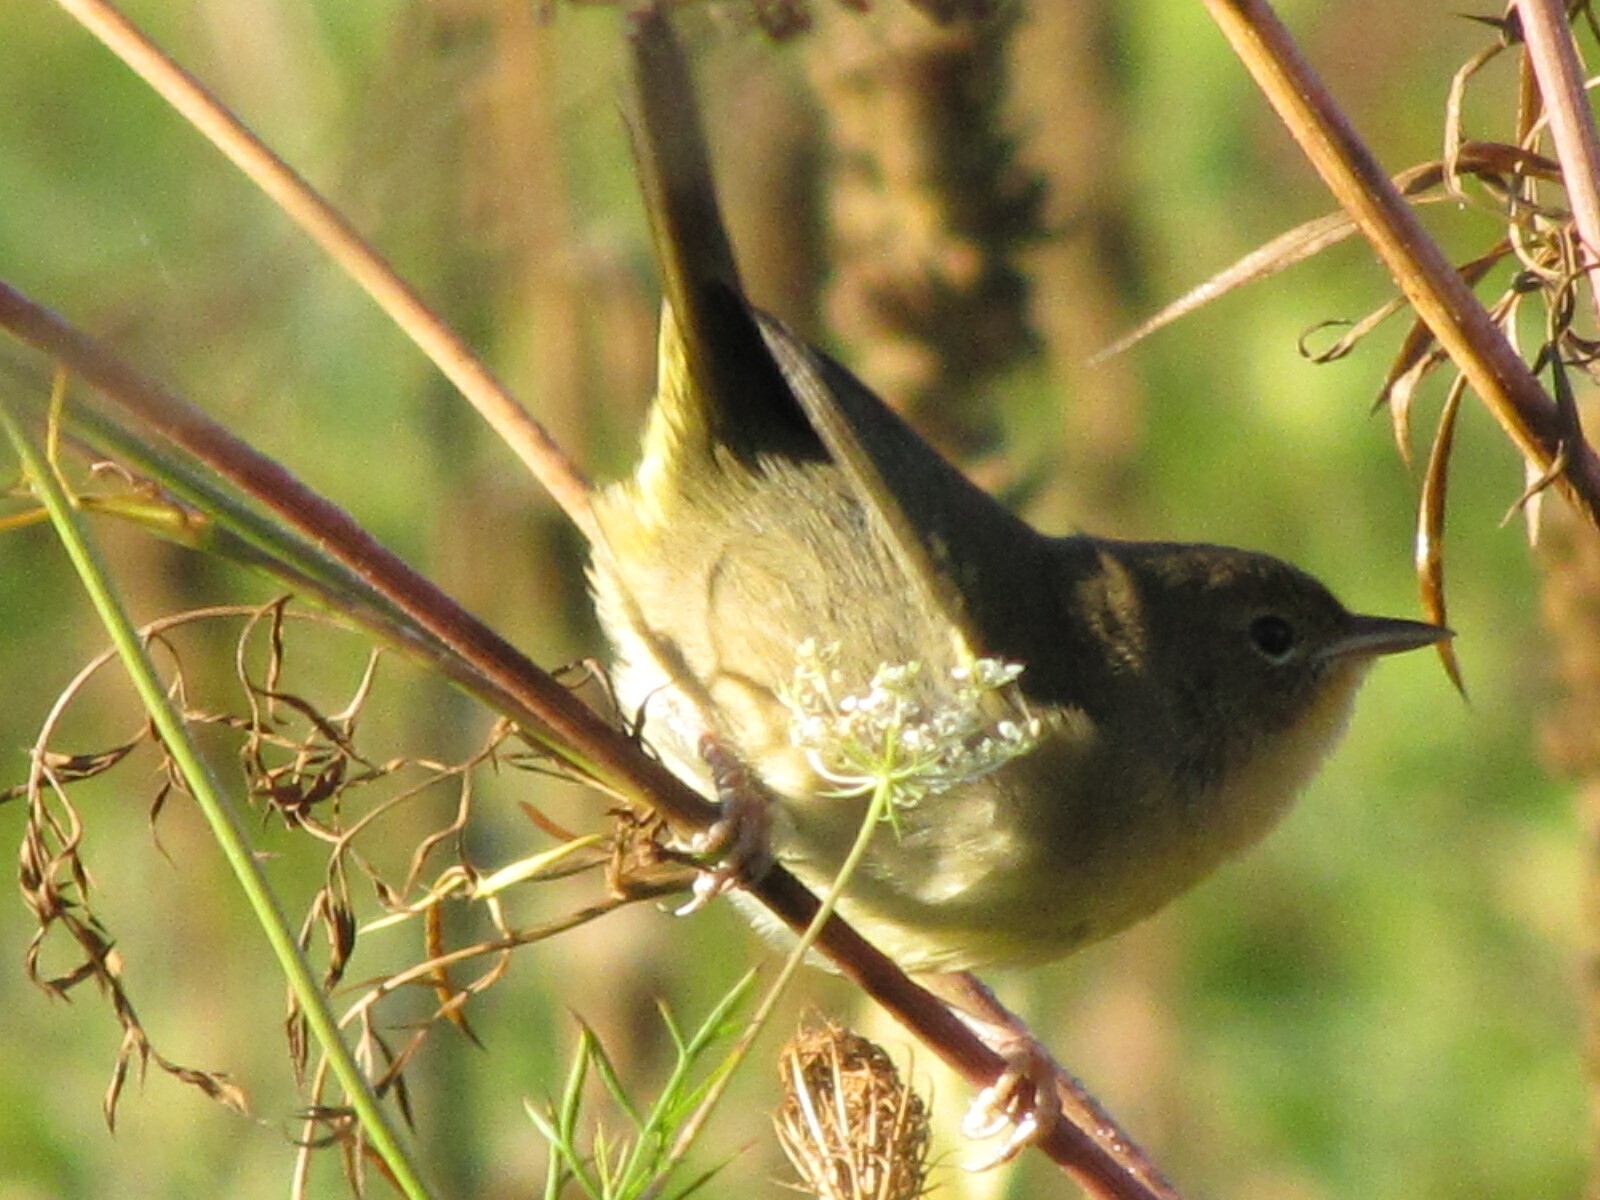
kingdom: Animalia
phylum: Chordata
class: Aves
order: Passeriformes
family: Parulidae
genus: Geothlypis
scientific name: Geothlypis trichas
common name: Common yellowthroat
